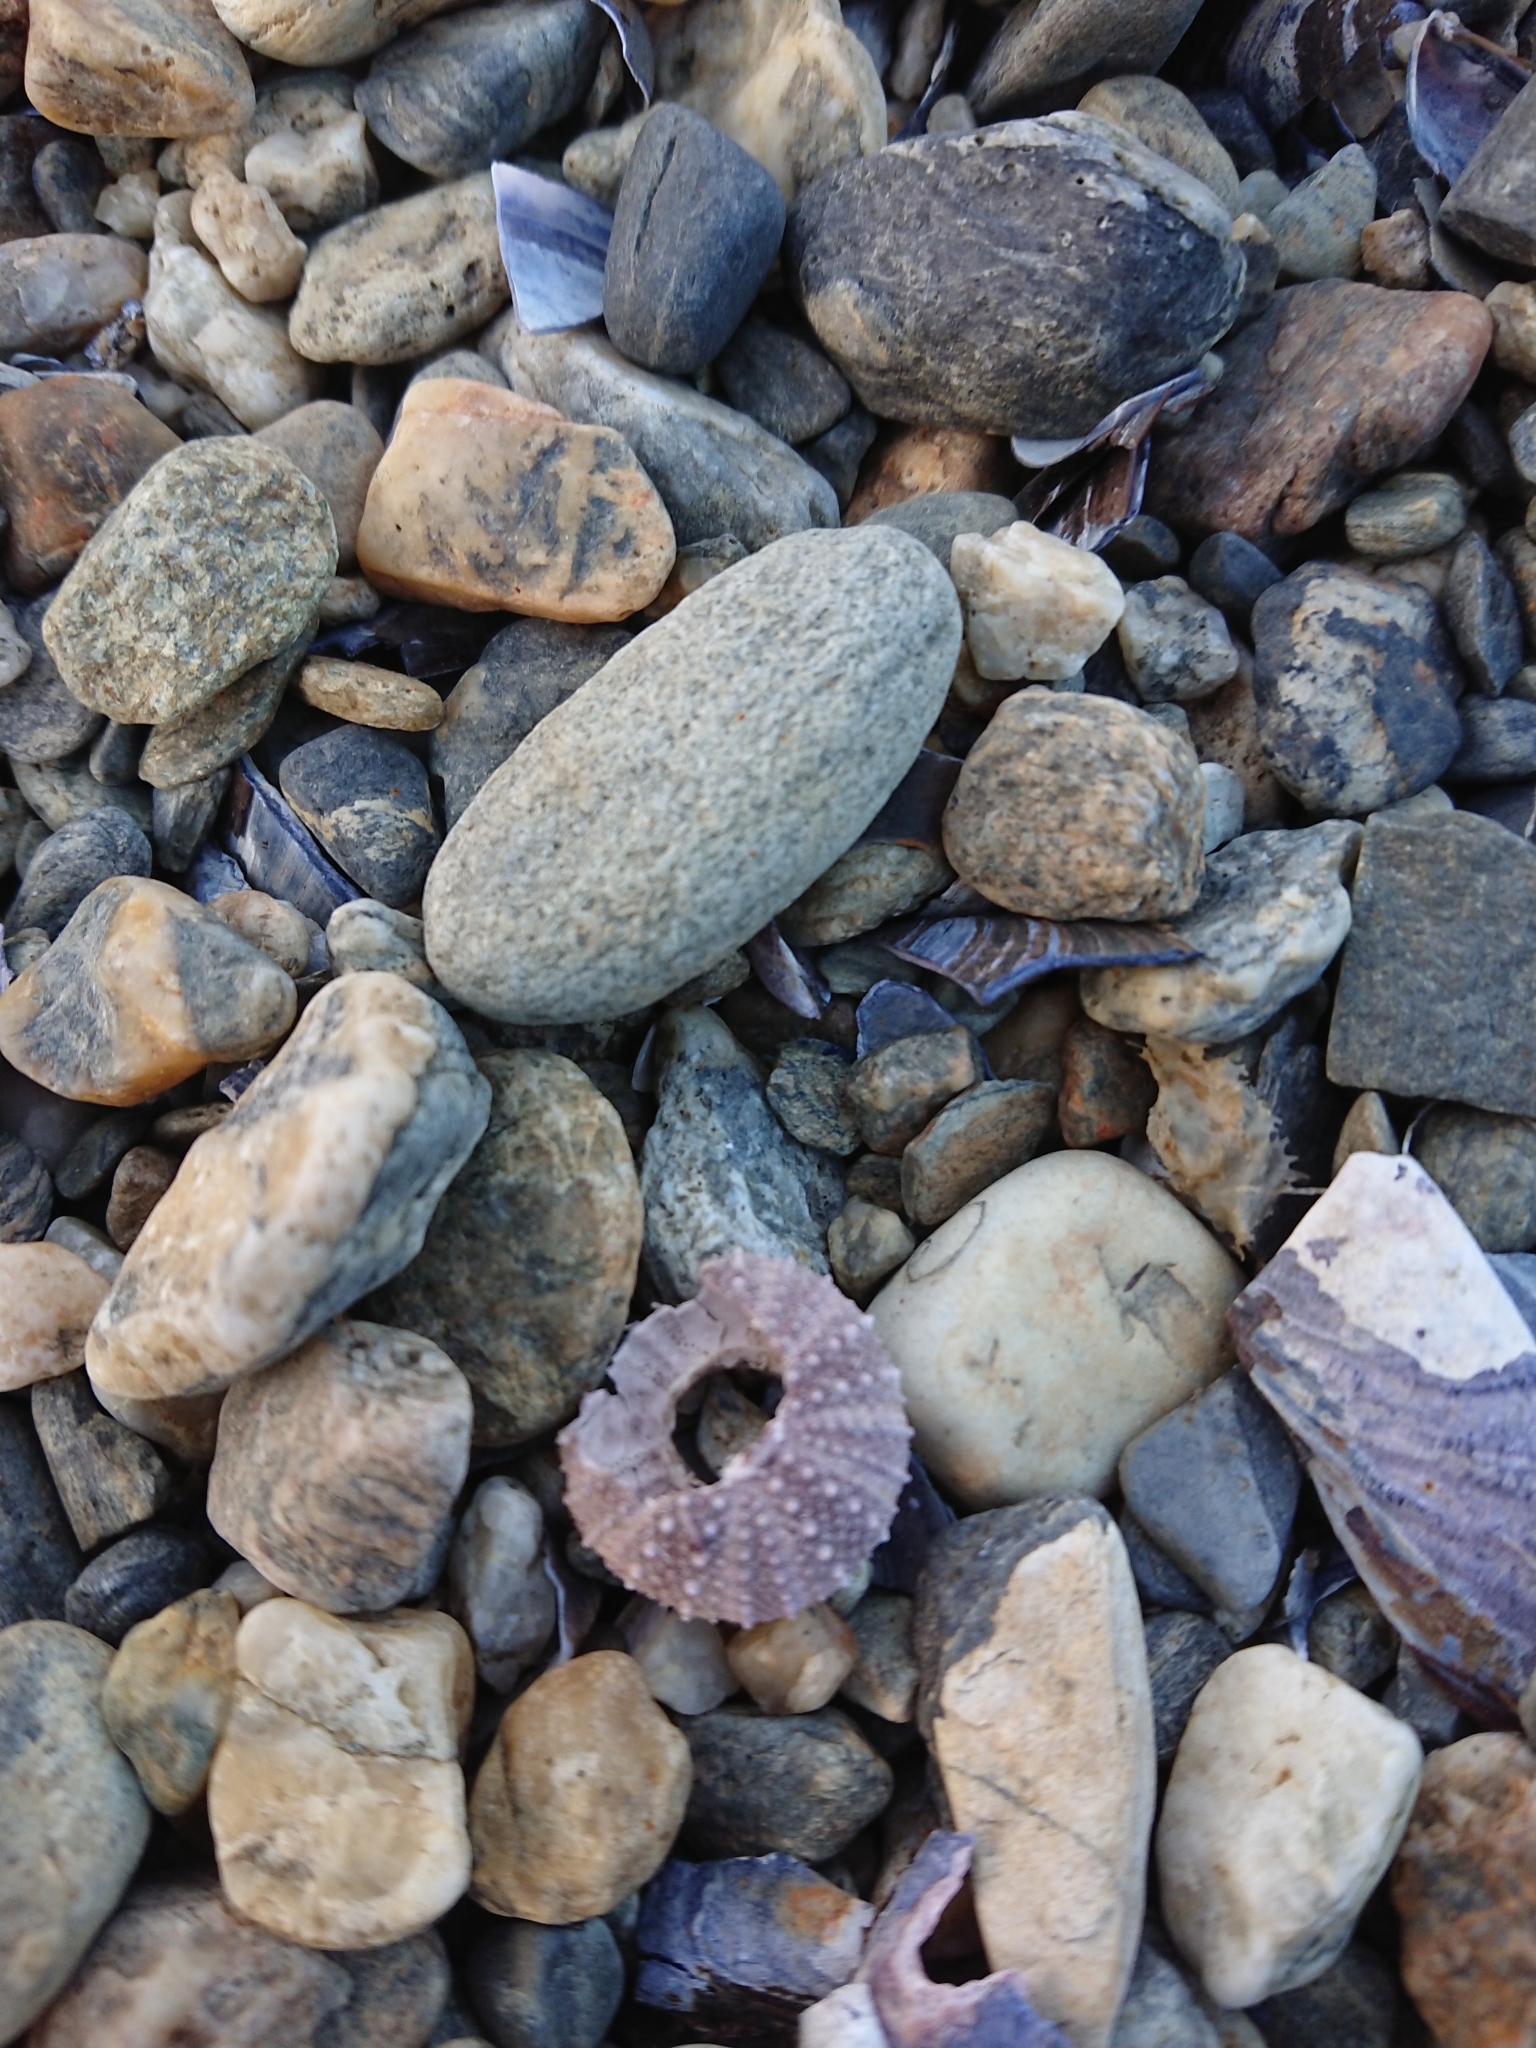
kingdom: Animalia
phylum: Echinodermata
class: Echinoidea
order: Camarodonta
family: Temnopleuridae
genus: Pseudechinus
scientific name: Pseudechinus magellanicus
